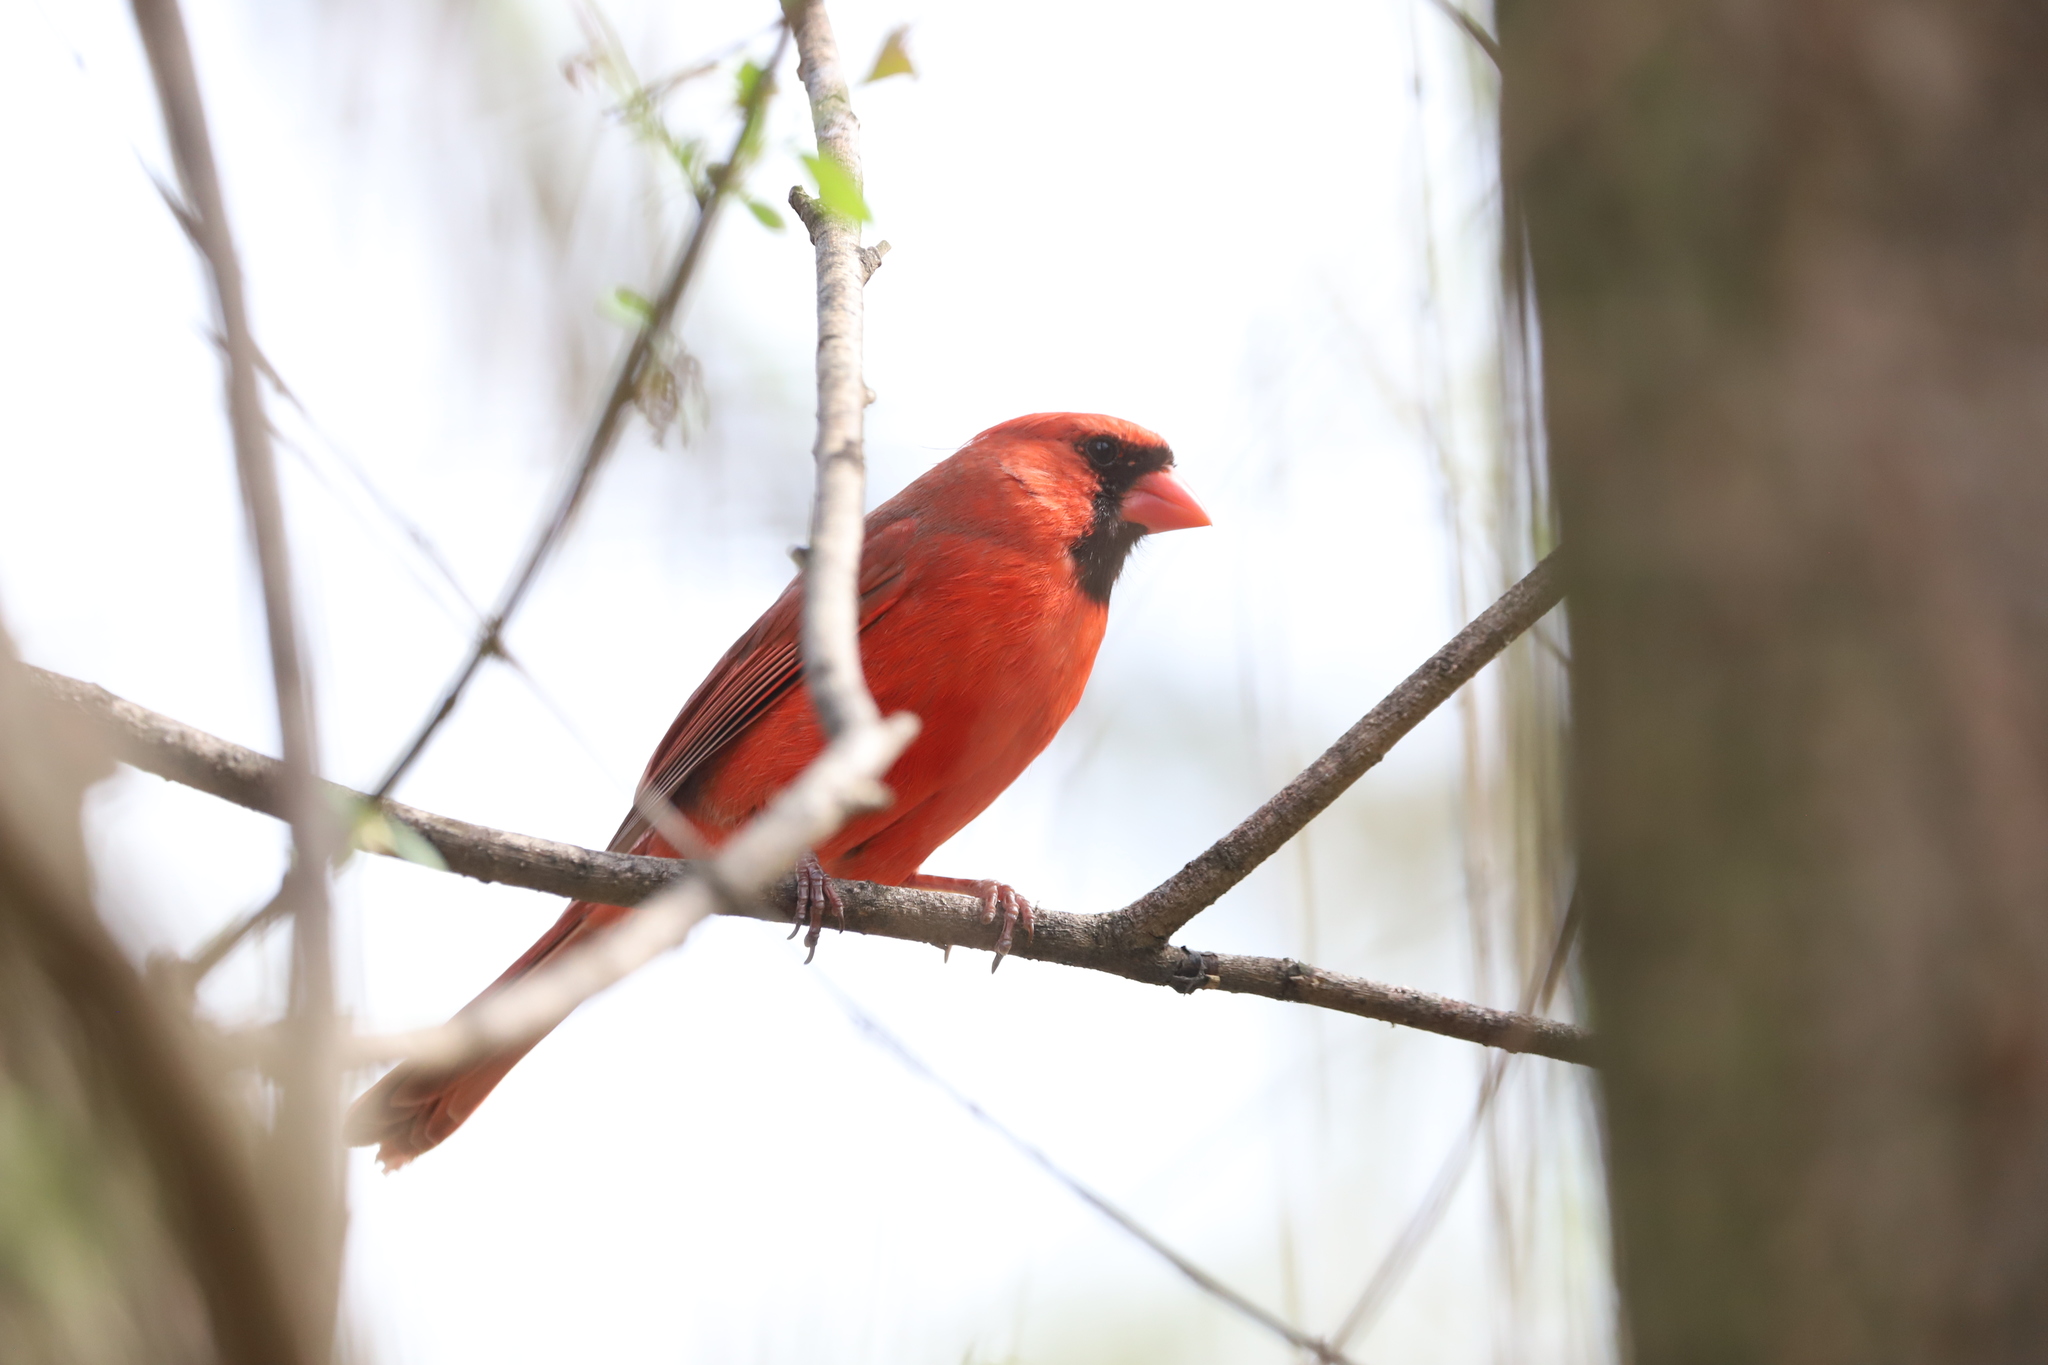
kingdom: Animalia
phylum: Chordata
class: Aves
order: Passeriformes
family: Cardinalidae
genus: Cardinalis
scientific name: Cardinalis cardinalis
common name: Northern cardinal
